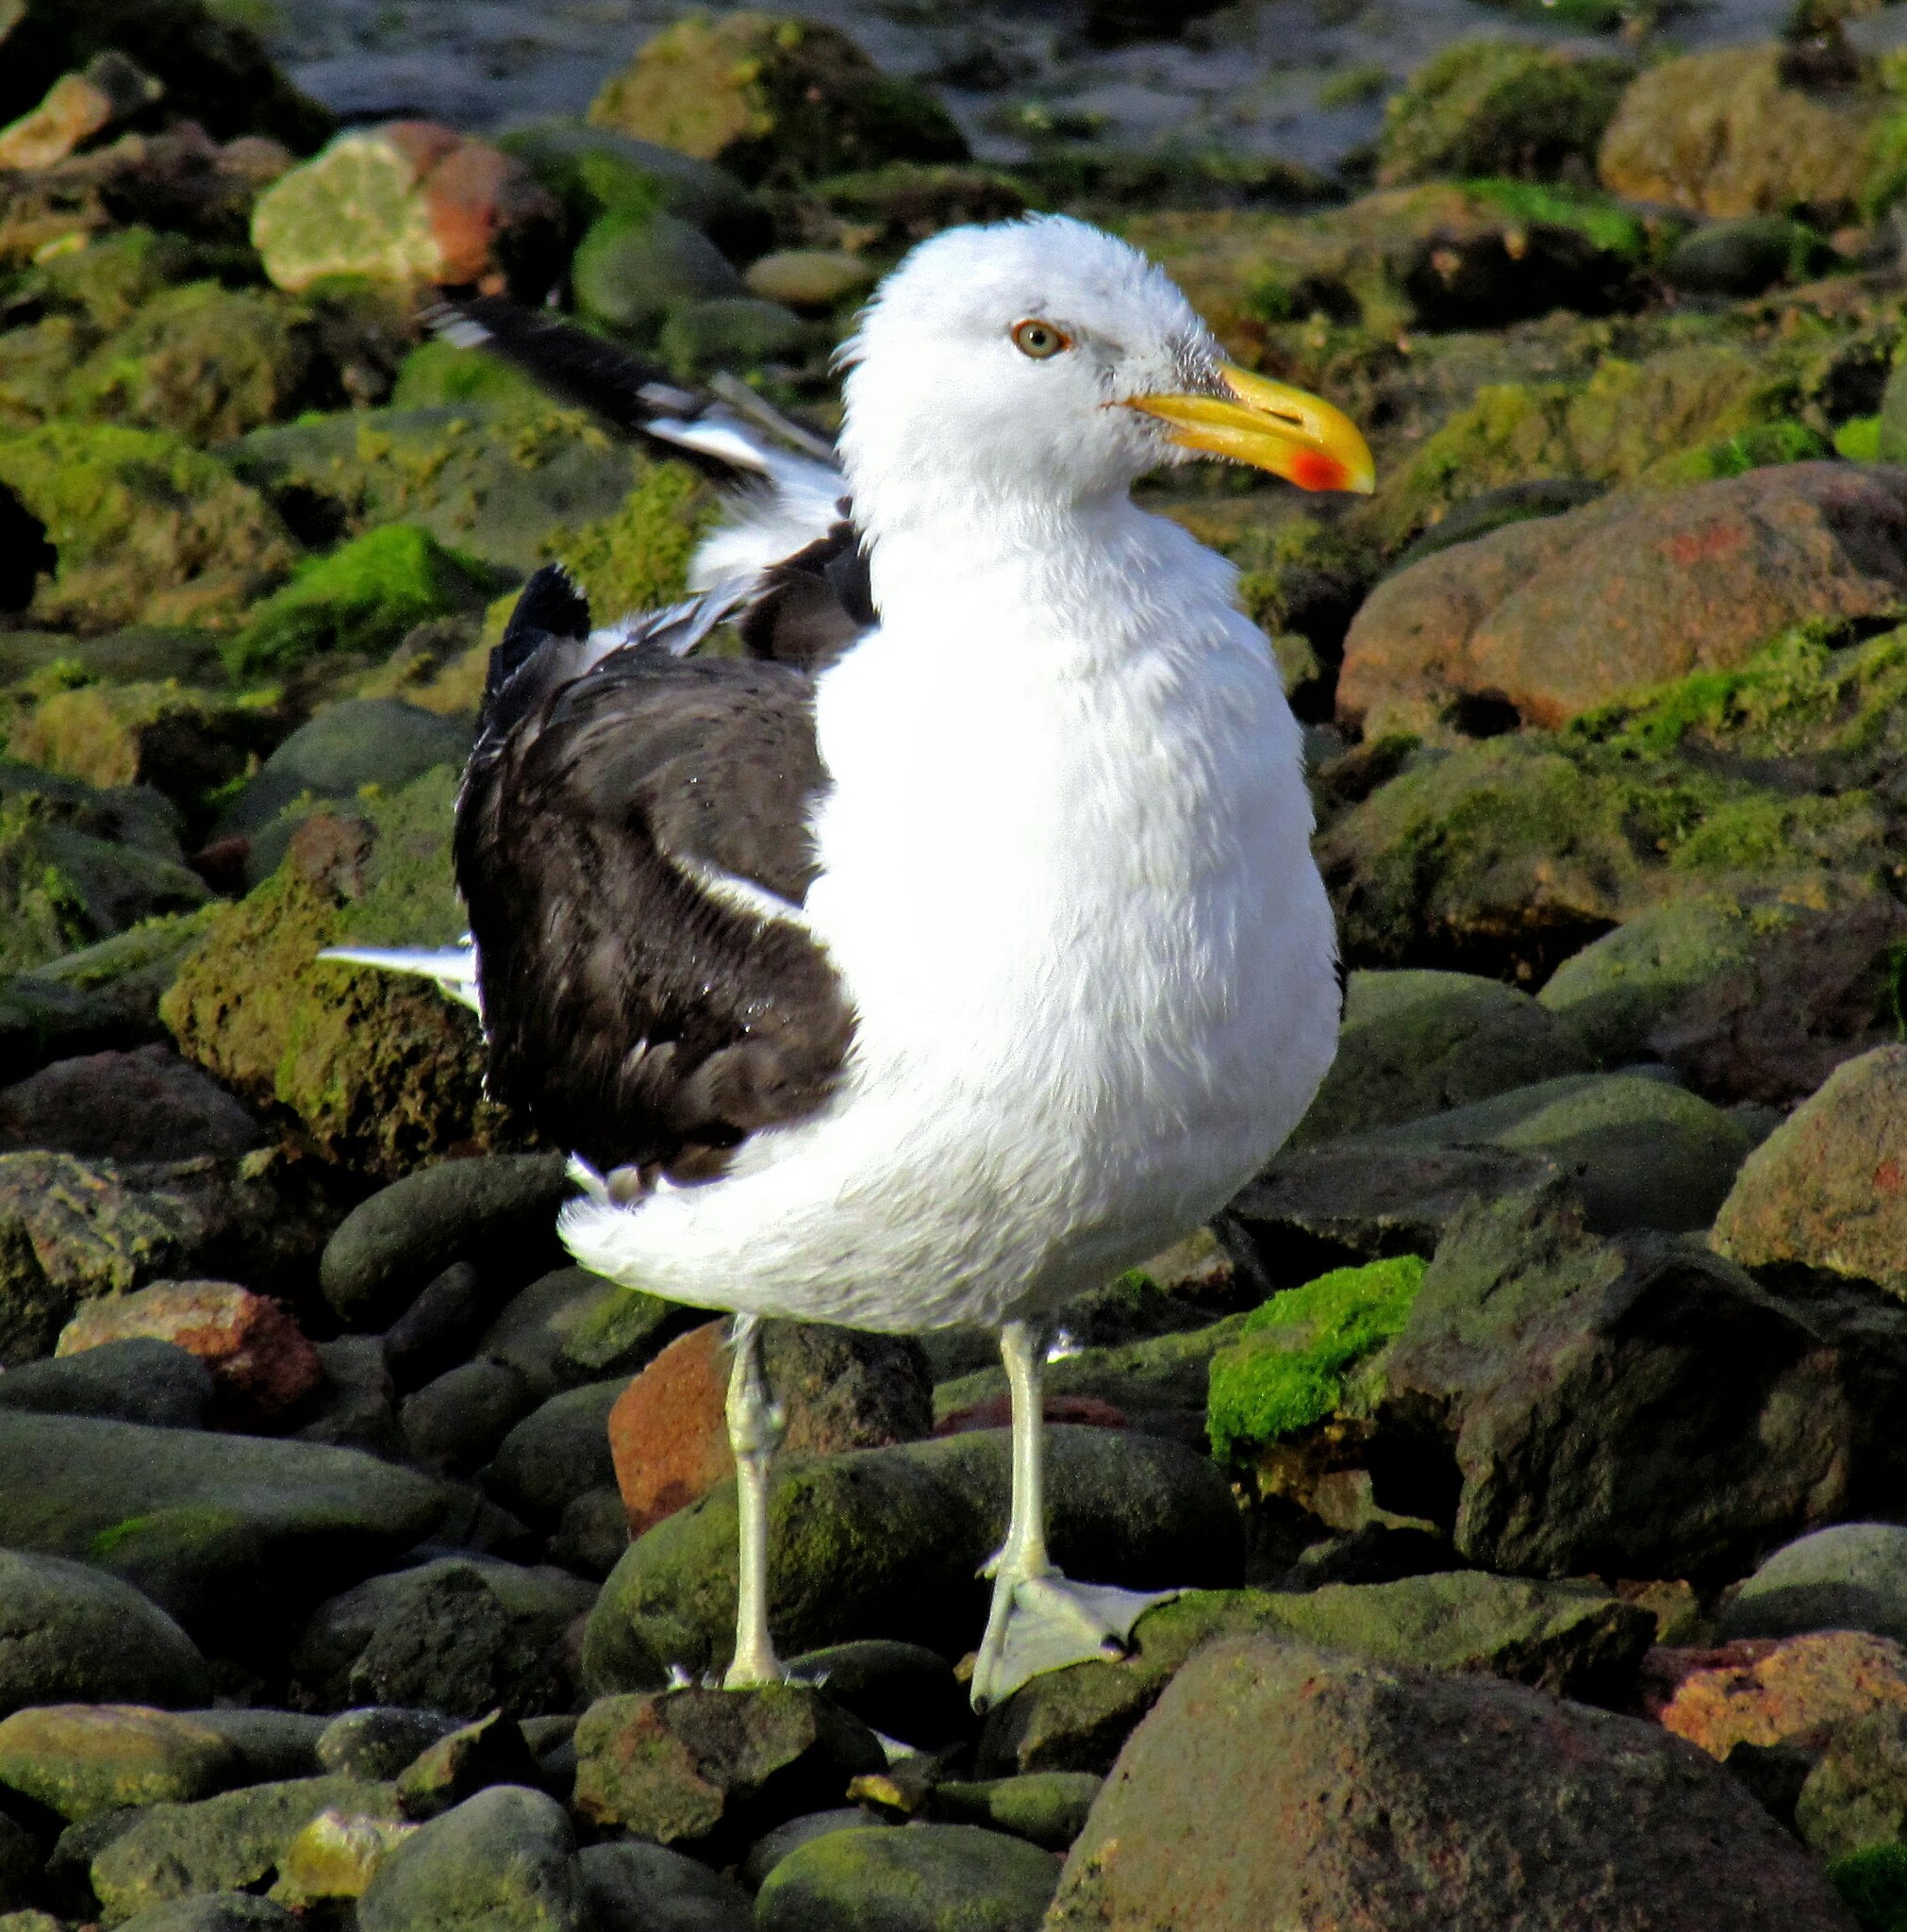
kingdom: Animalia
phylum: Chordata
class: Aves
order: Charadriiformes
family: Laridae
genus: Larus
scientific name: Larus dominicanus
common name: Kelp gull
